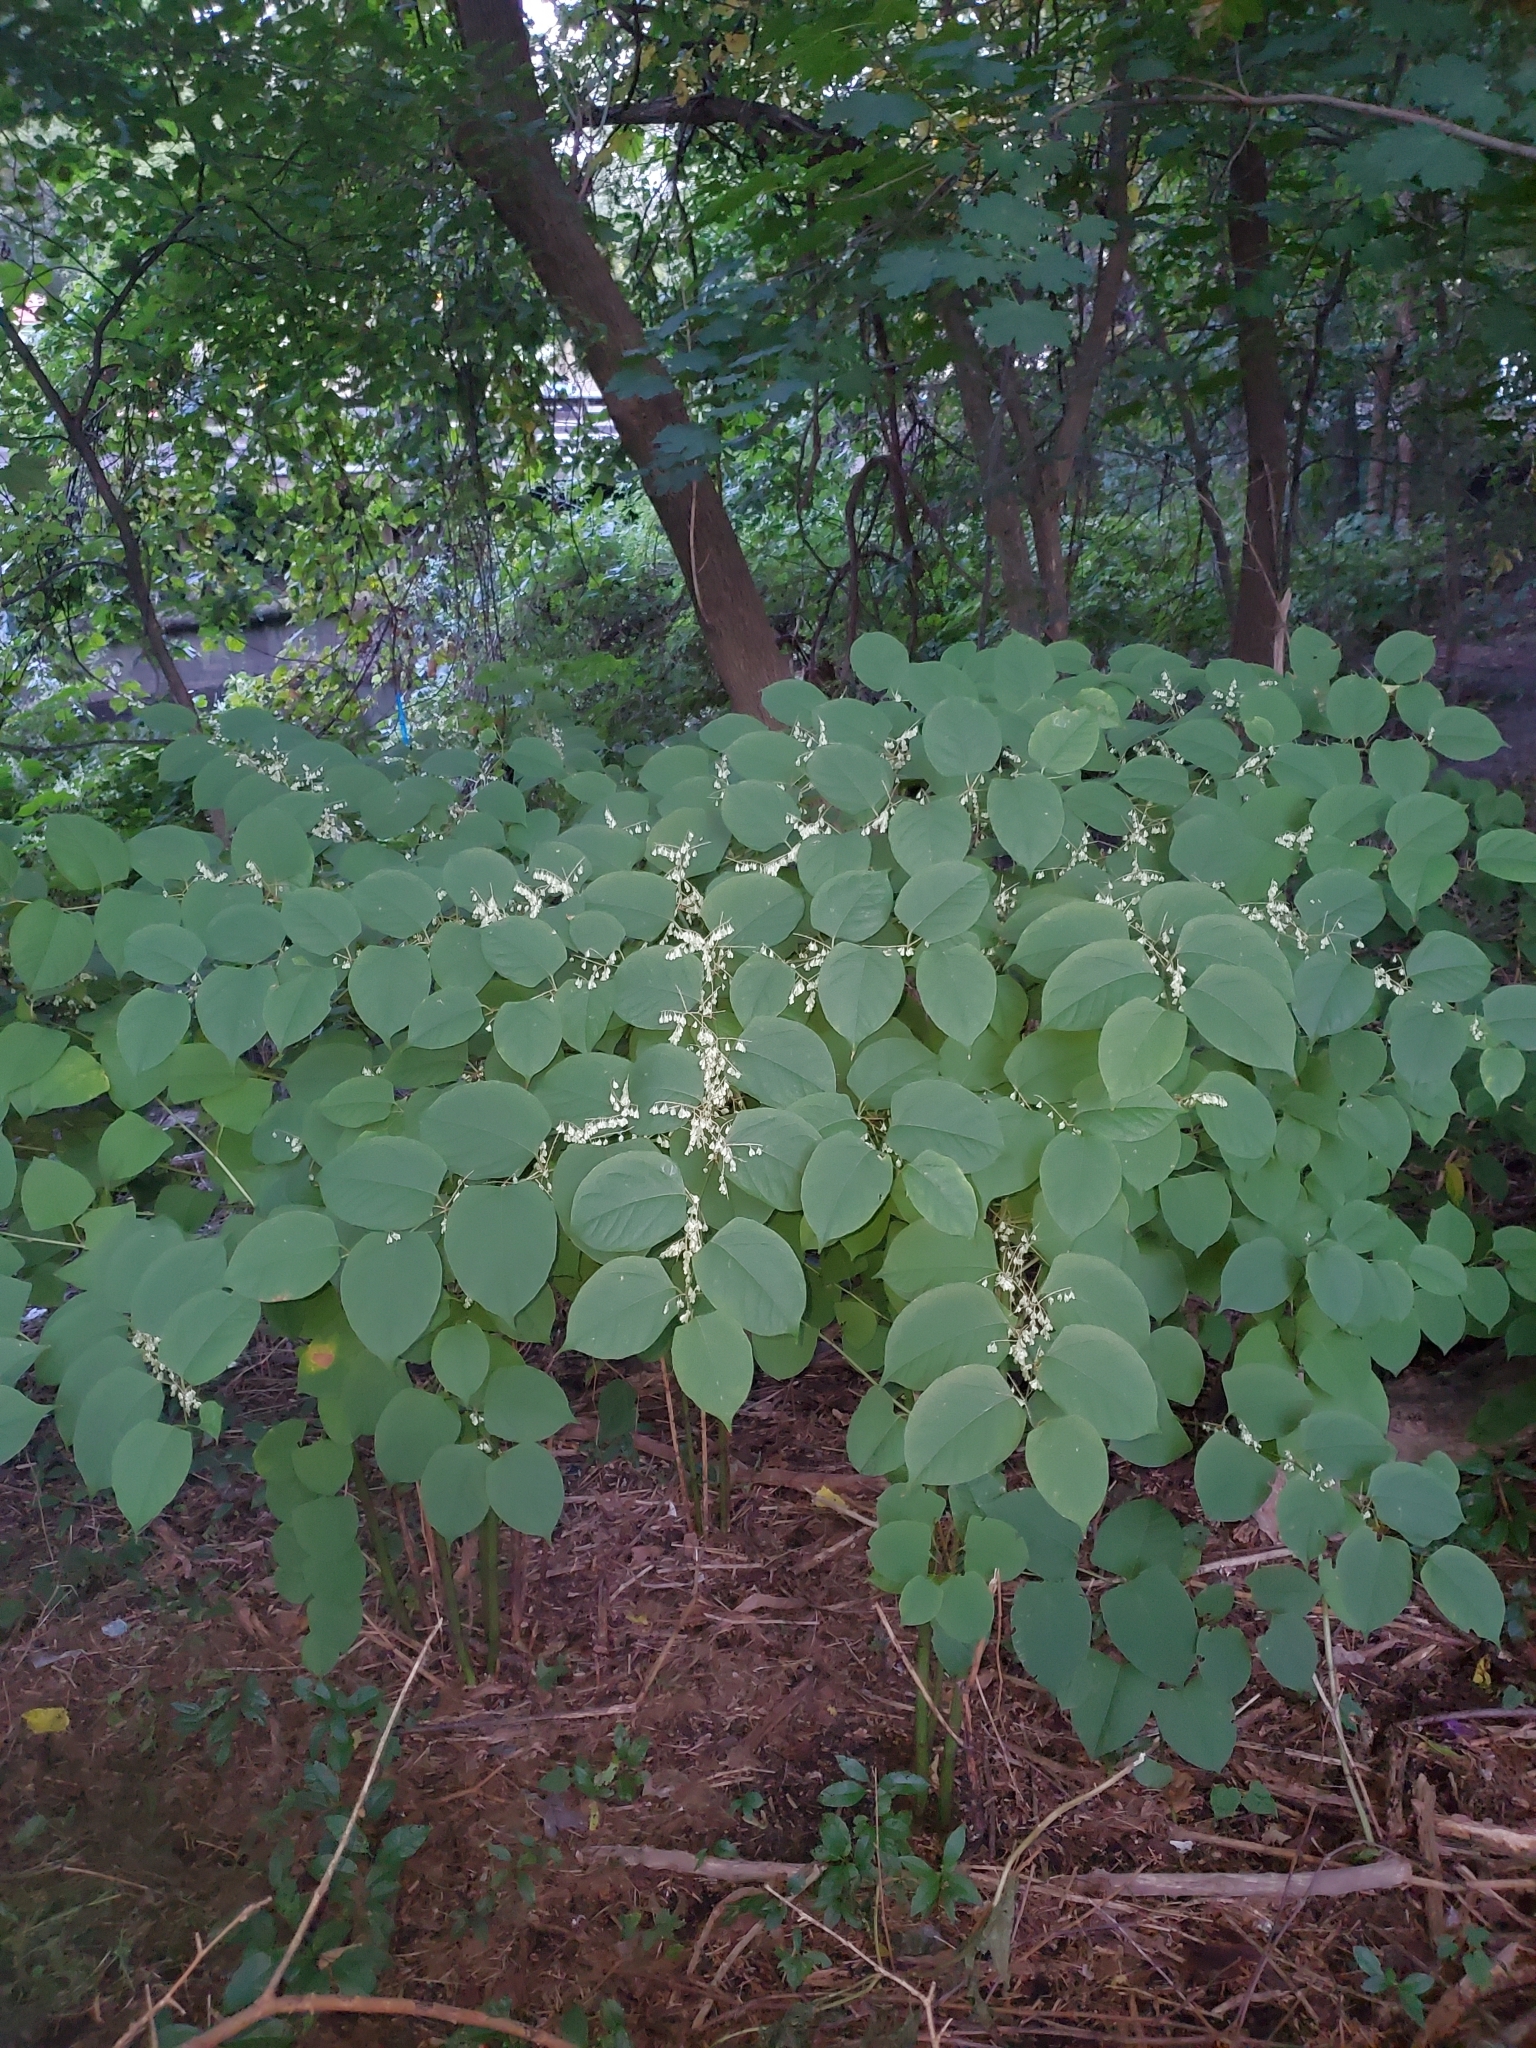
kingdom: Plantae
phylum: Tracheophyta
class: Magnoliopsida
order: Caryophyllales
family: Polygonaceae
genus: Reynoutria
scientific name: Reynoutria japonica
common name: Japanese knotweed
